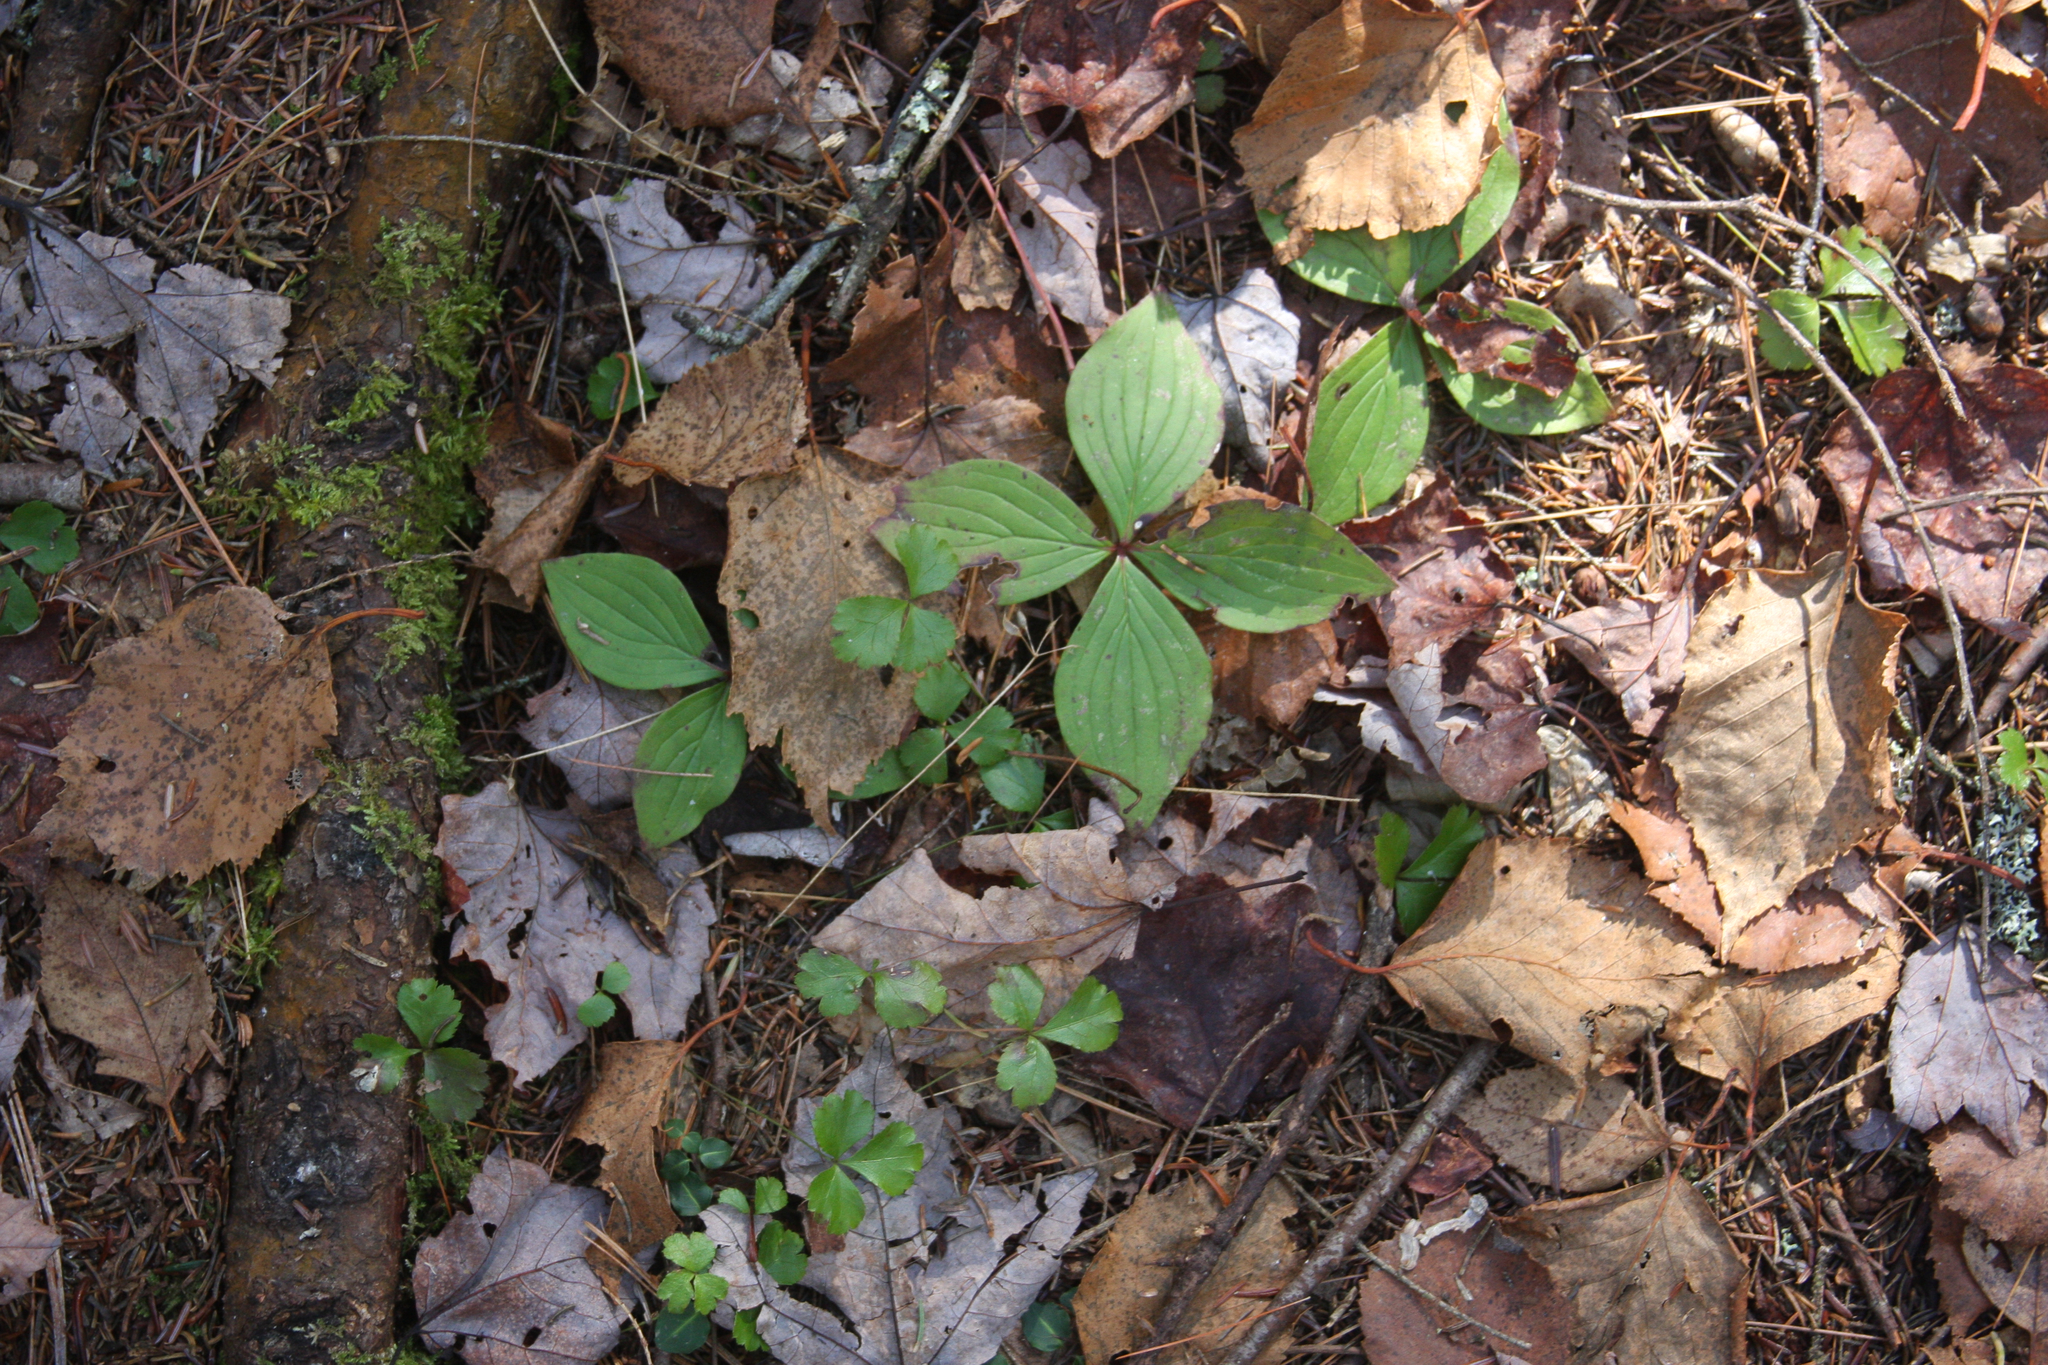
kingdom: Plantae
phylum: Tracheophyta
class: Magnoliopsida
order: Cornales
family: Cornaceae
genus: Cornus
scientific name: Cornus canadensis
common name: Creeping dogwood
